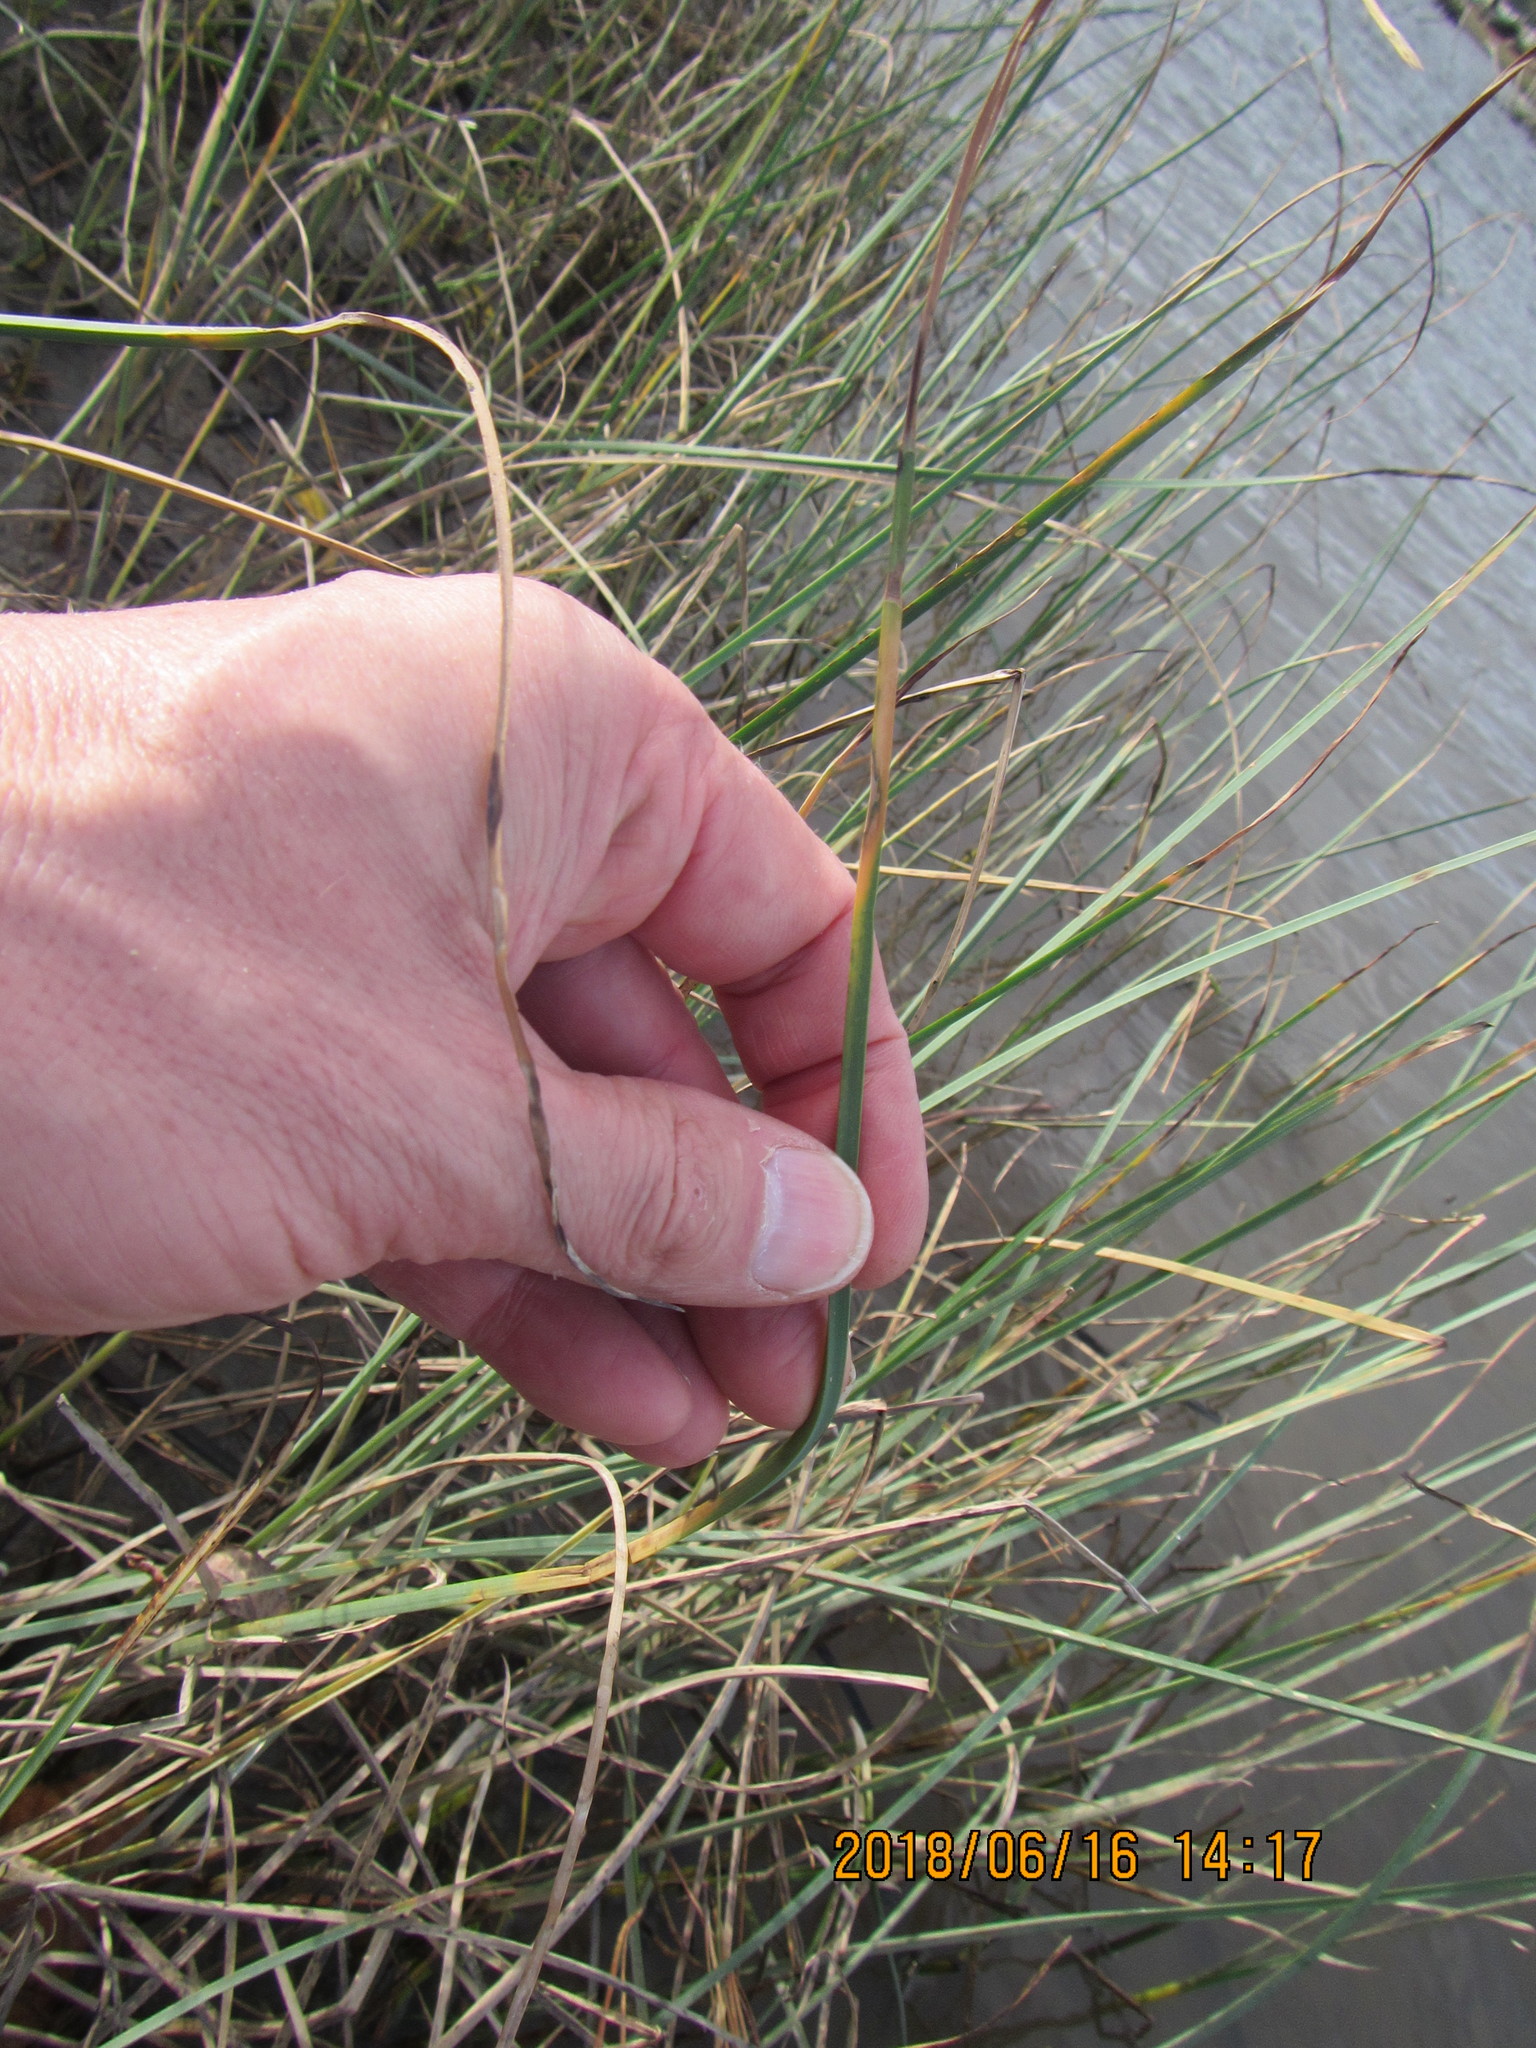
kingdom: Plantae
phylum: Tracheophyta
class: Liliopsida
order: Poales
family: Cyperaceae
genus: Schoenoplectus
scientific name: Schoenoplectus pungens
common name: Sharp club-rush
